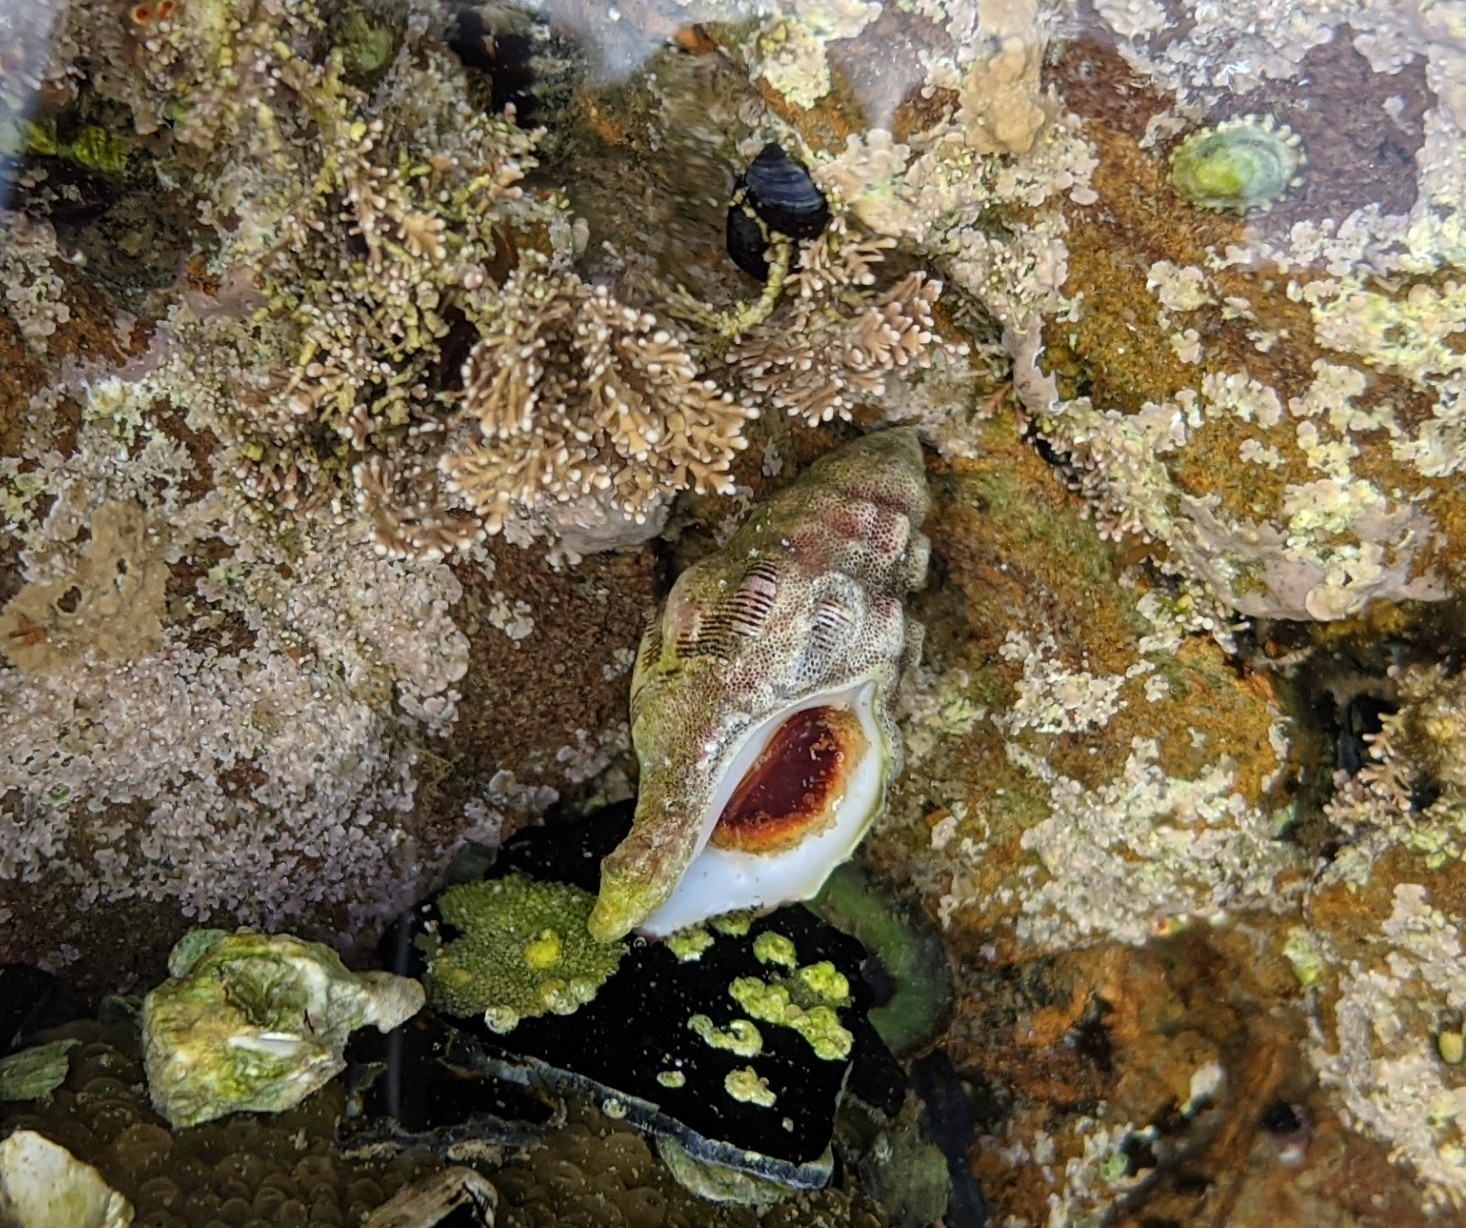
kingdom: Animalia
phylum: Mollusca
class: Gastropoda
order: Neogastropoda
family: Muricidae
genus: Roperia
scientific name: Roperia poulsoni
